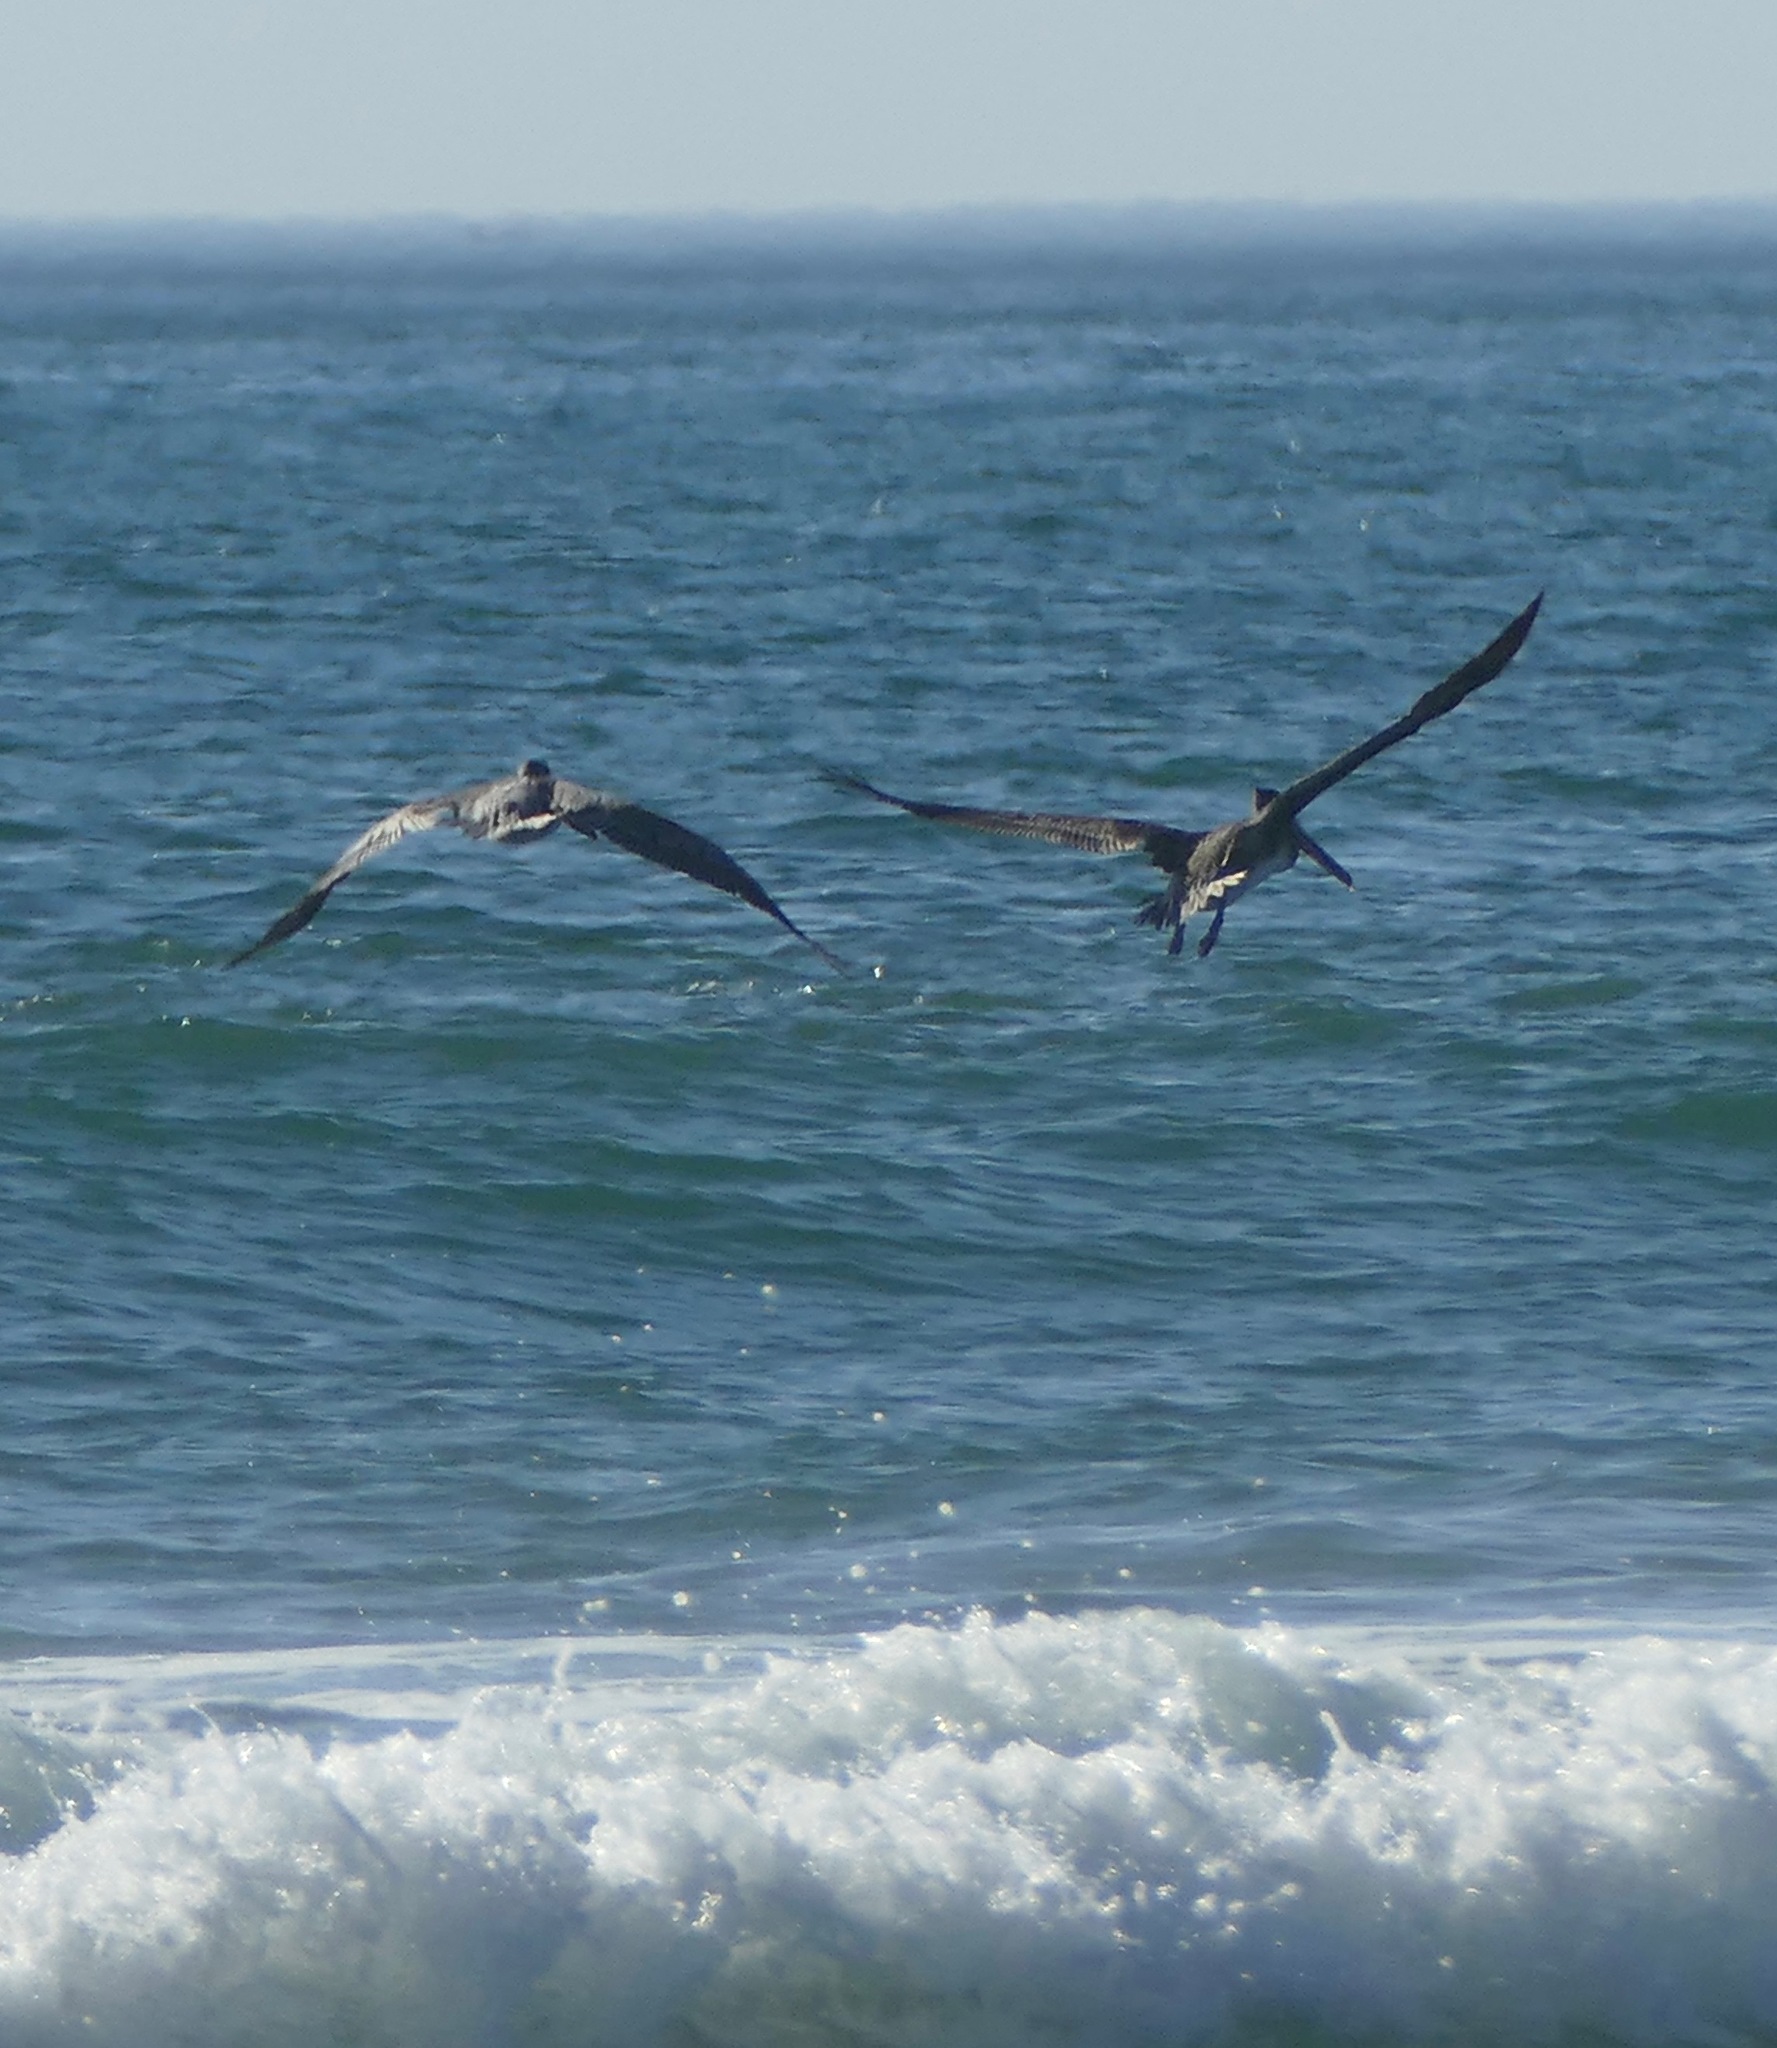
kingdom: Animalia
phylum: Chordata
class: Aves
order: Pelecaniformes
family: Pelecanidae
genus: Pelecanus
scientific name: Pelecanus occidentalis
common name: Brown pelican
